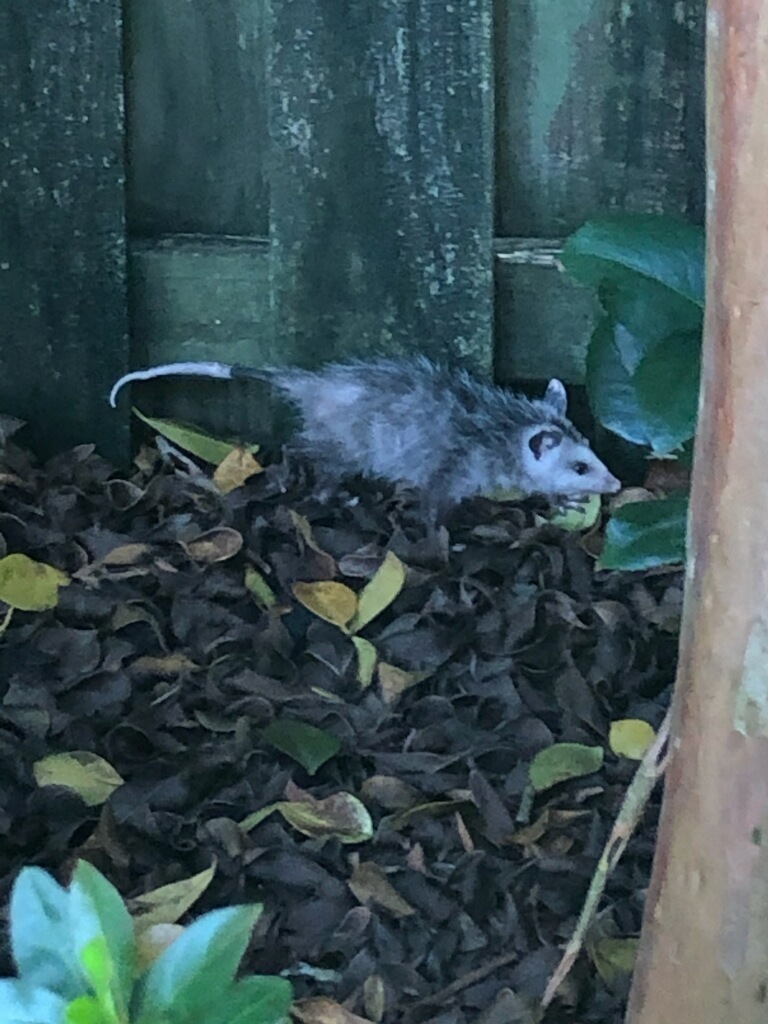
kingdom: Animalia
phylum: Chordata
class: Mammalia
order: Didelphimorphia
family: Didelphidae
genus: Didelphis
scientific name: Didelphis virginiana
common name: Virginia opossum
